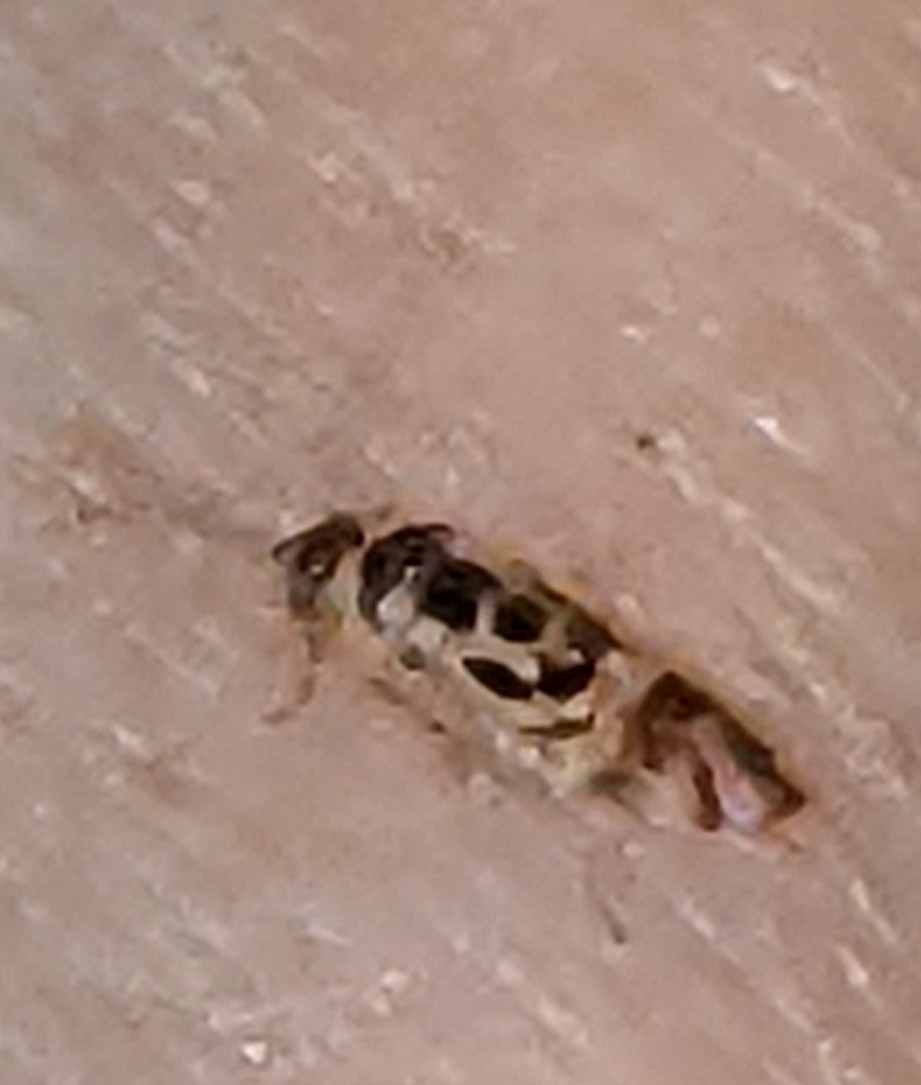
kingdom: Animalia
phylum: Arthropoda
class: Insecta
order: Psocodea
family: Stenopsocidae
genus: Graphopsocus
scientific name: Graphopsocus cruciatus
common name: Lizard bark louse
